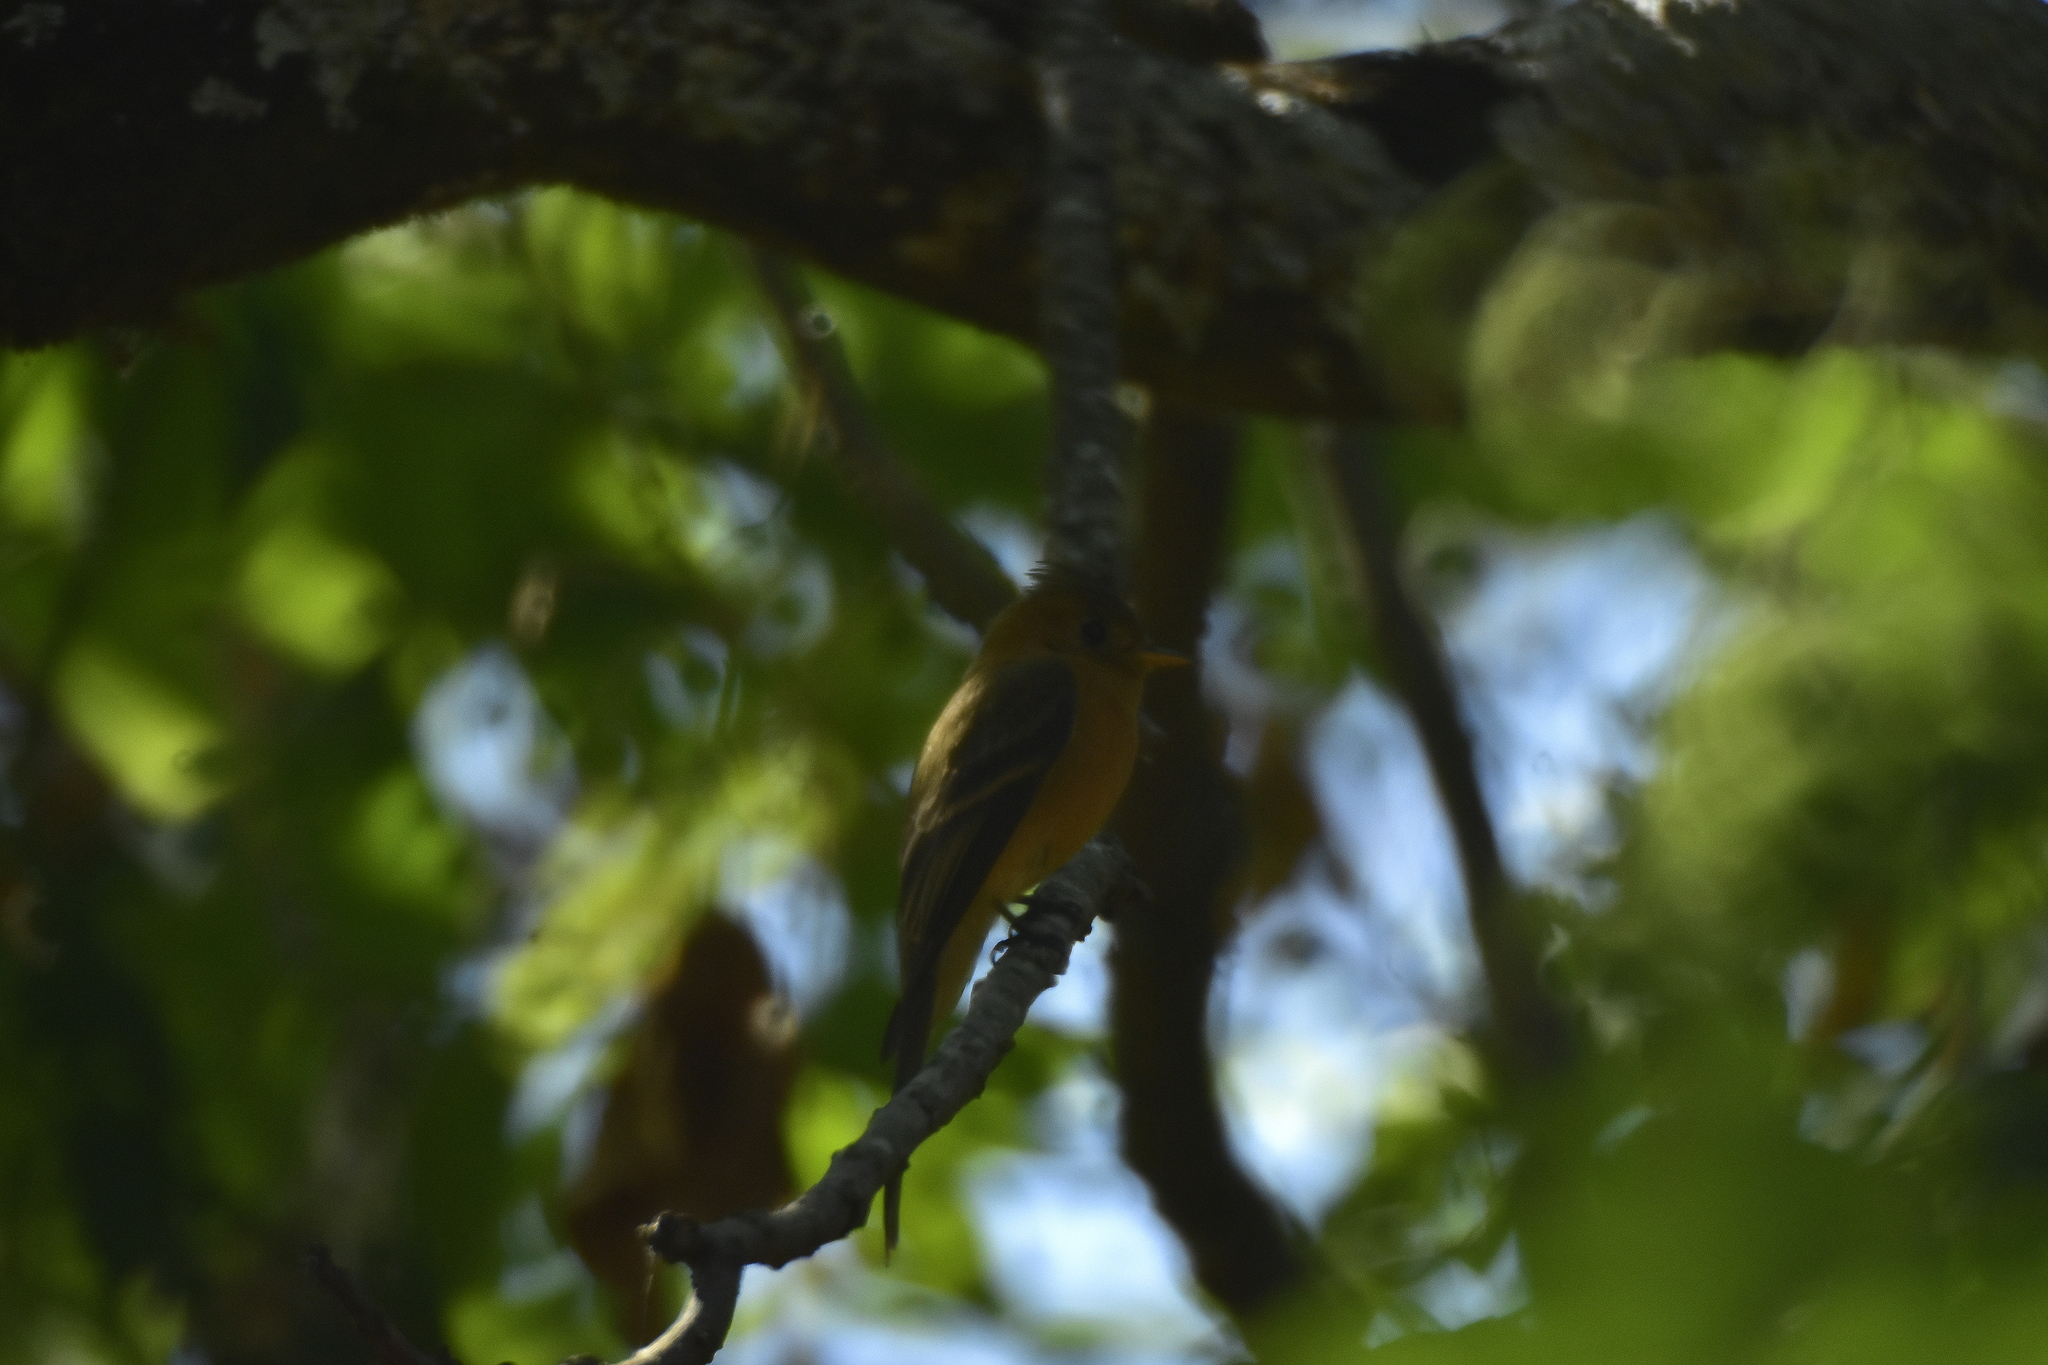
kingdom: Animalia
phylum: Chordata
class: Aves
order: Passeriformes
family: Tyrannidae
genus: Mitrephanes
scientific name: Mitrephanes phaeocercus
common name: Northern tufted flycatcher
